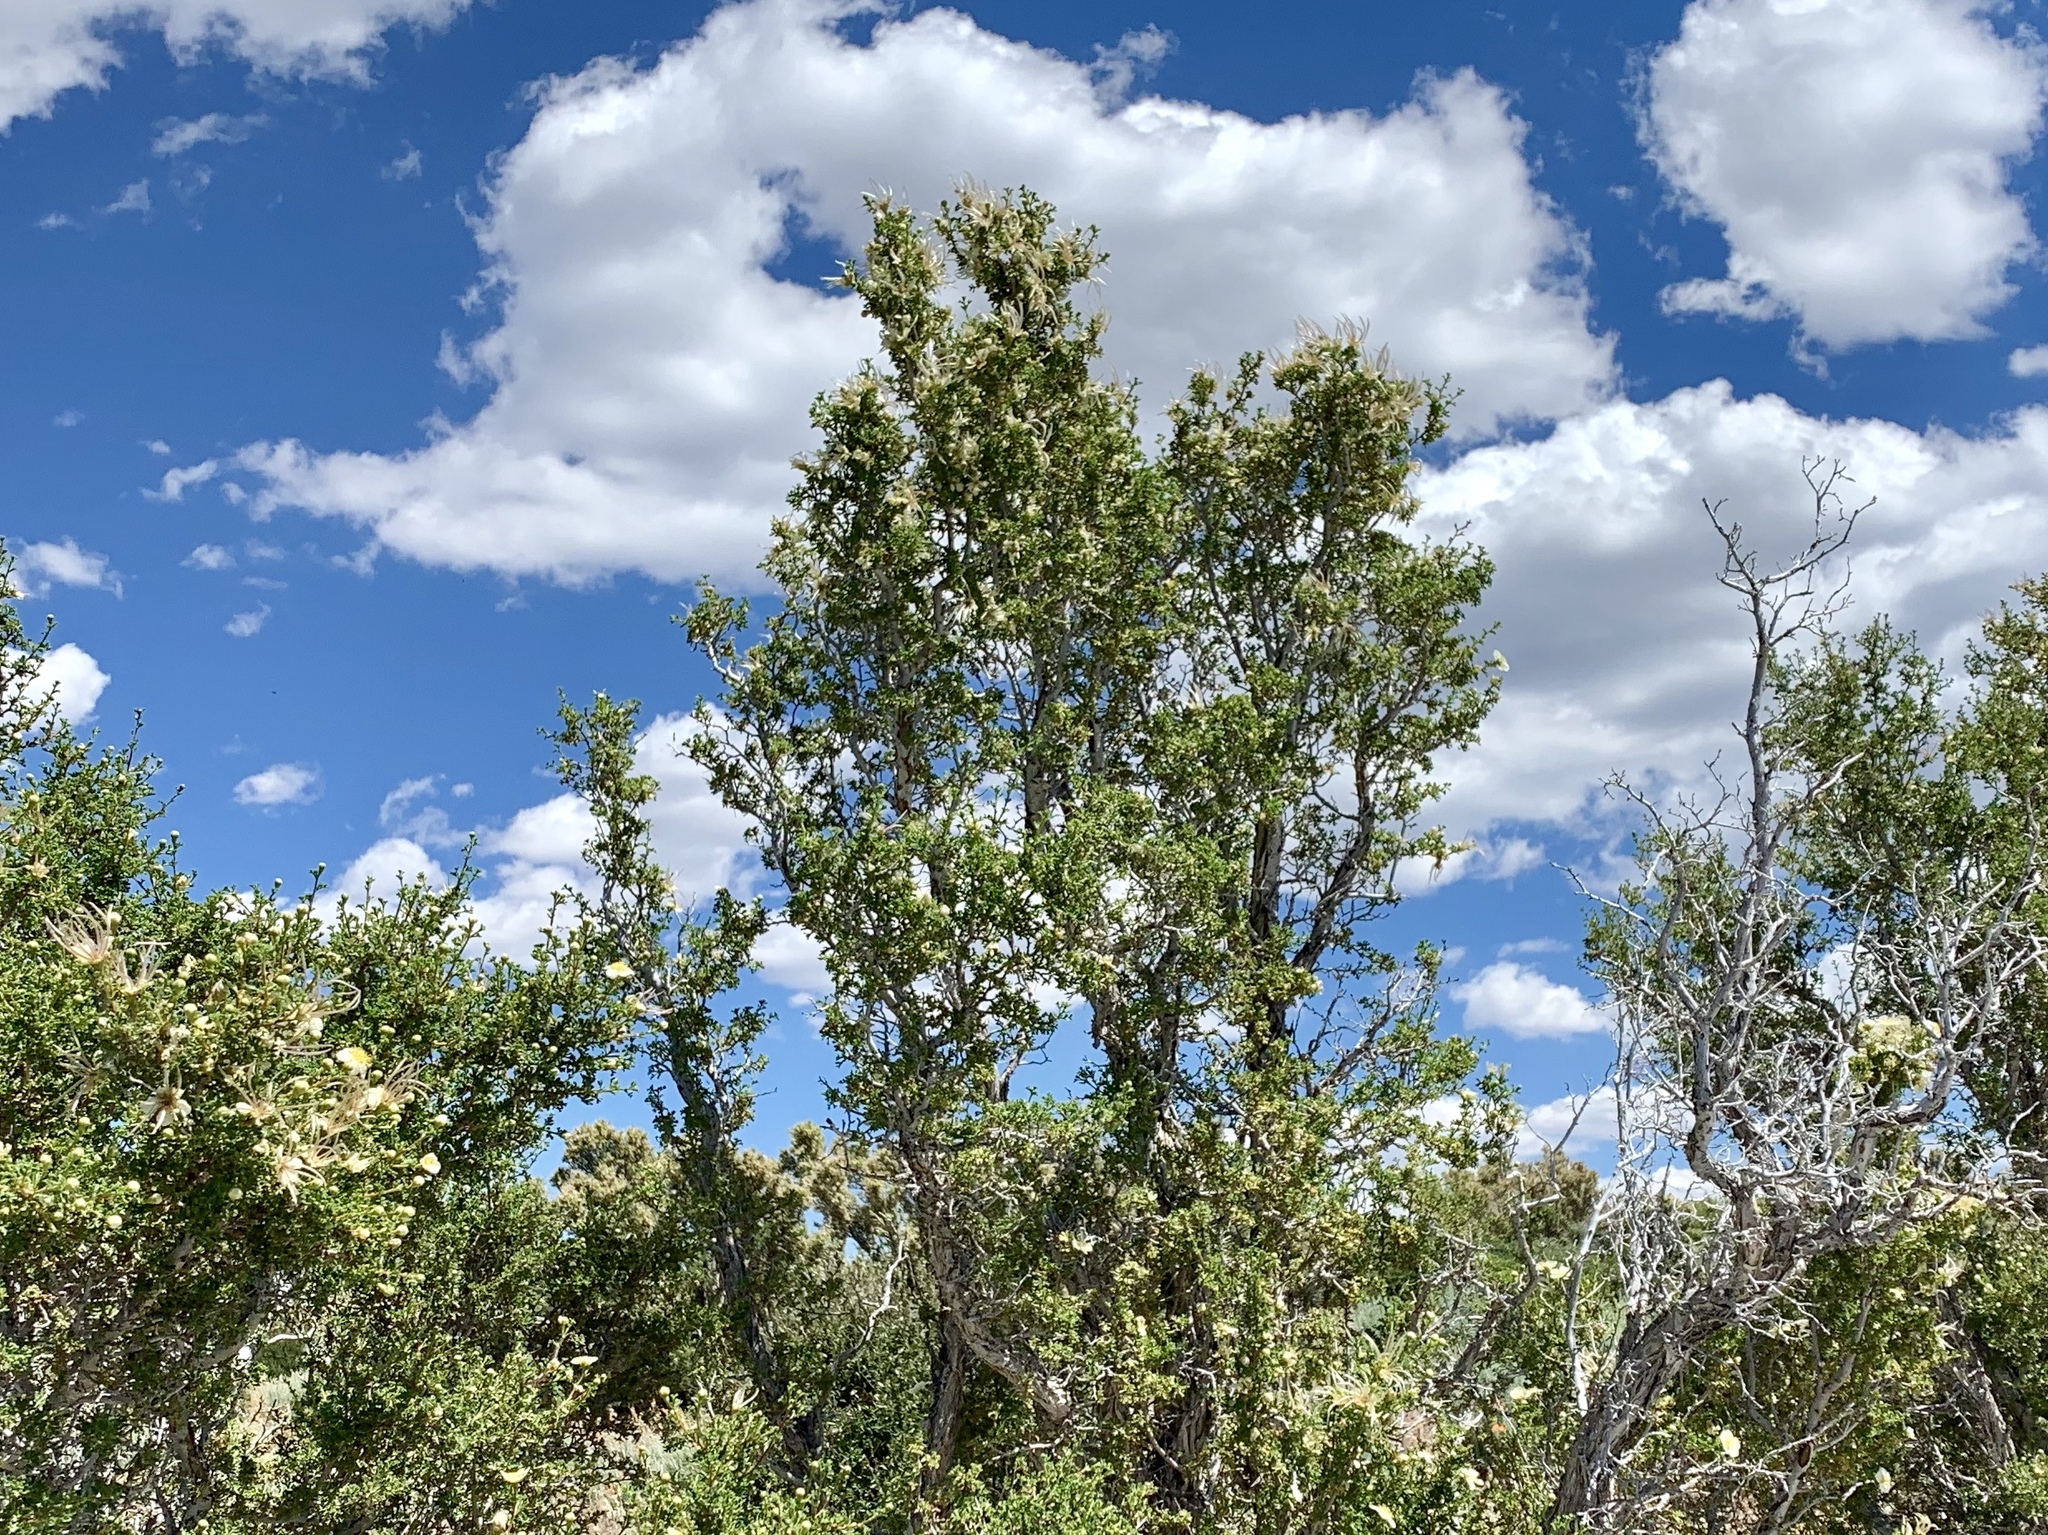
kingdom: Plantae
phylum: Tracheophyta
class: Magnoliopsida
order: Rosales
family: Rosaceae
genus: Purshia
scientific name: Purshia stansburiana
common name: Stansbury's cliffrose
